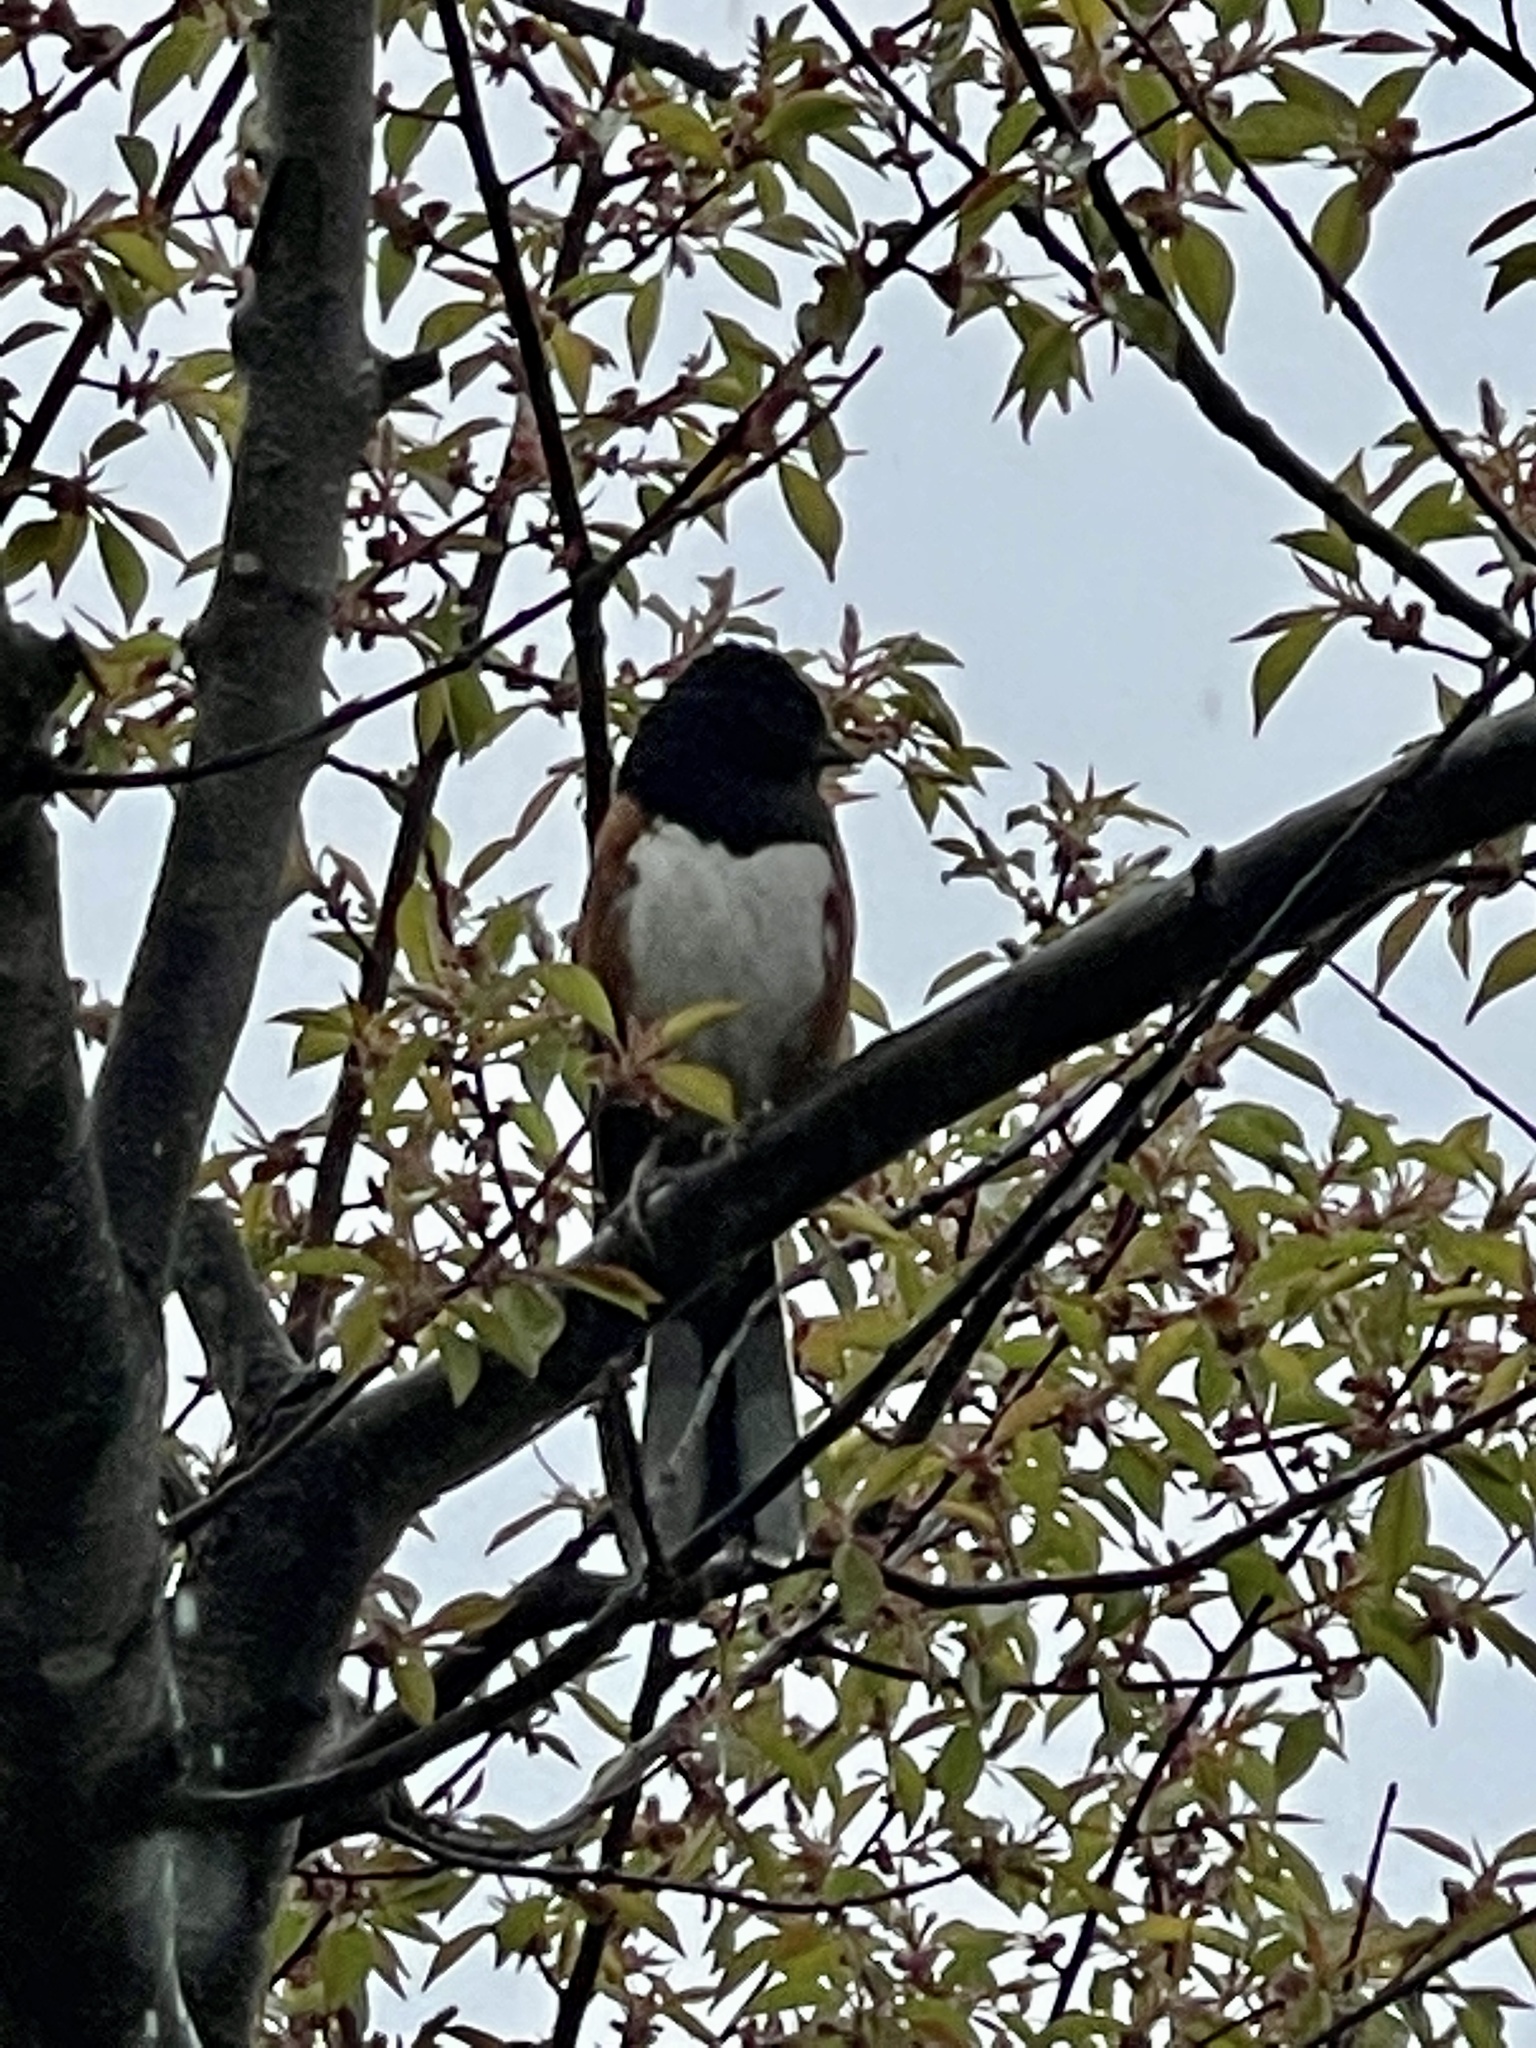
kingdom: Animalia
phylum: Chordata
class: Aves
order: Passeriformes
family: Passerellidae
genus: Pipilo
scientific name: Pipilo erythrophthalmus
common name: Eastern towhee
